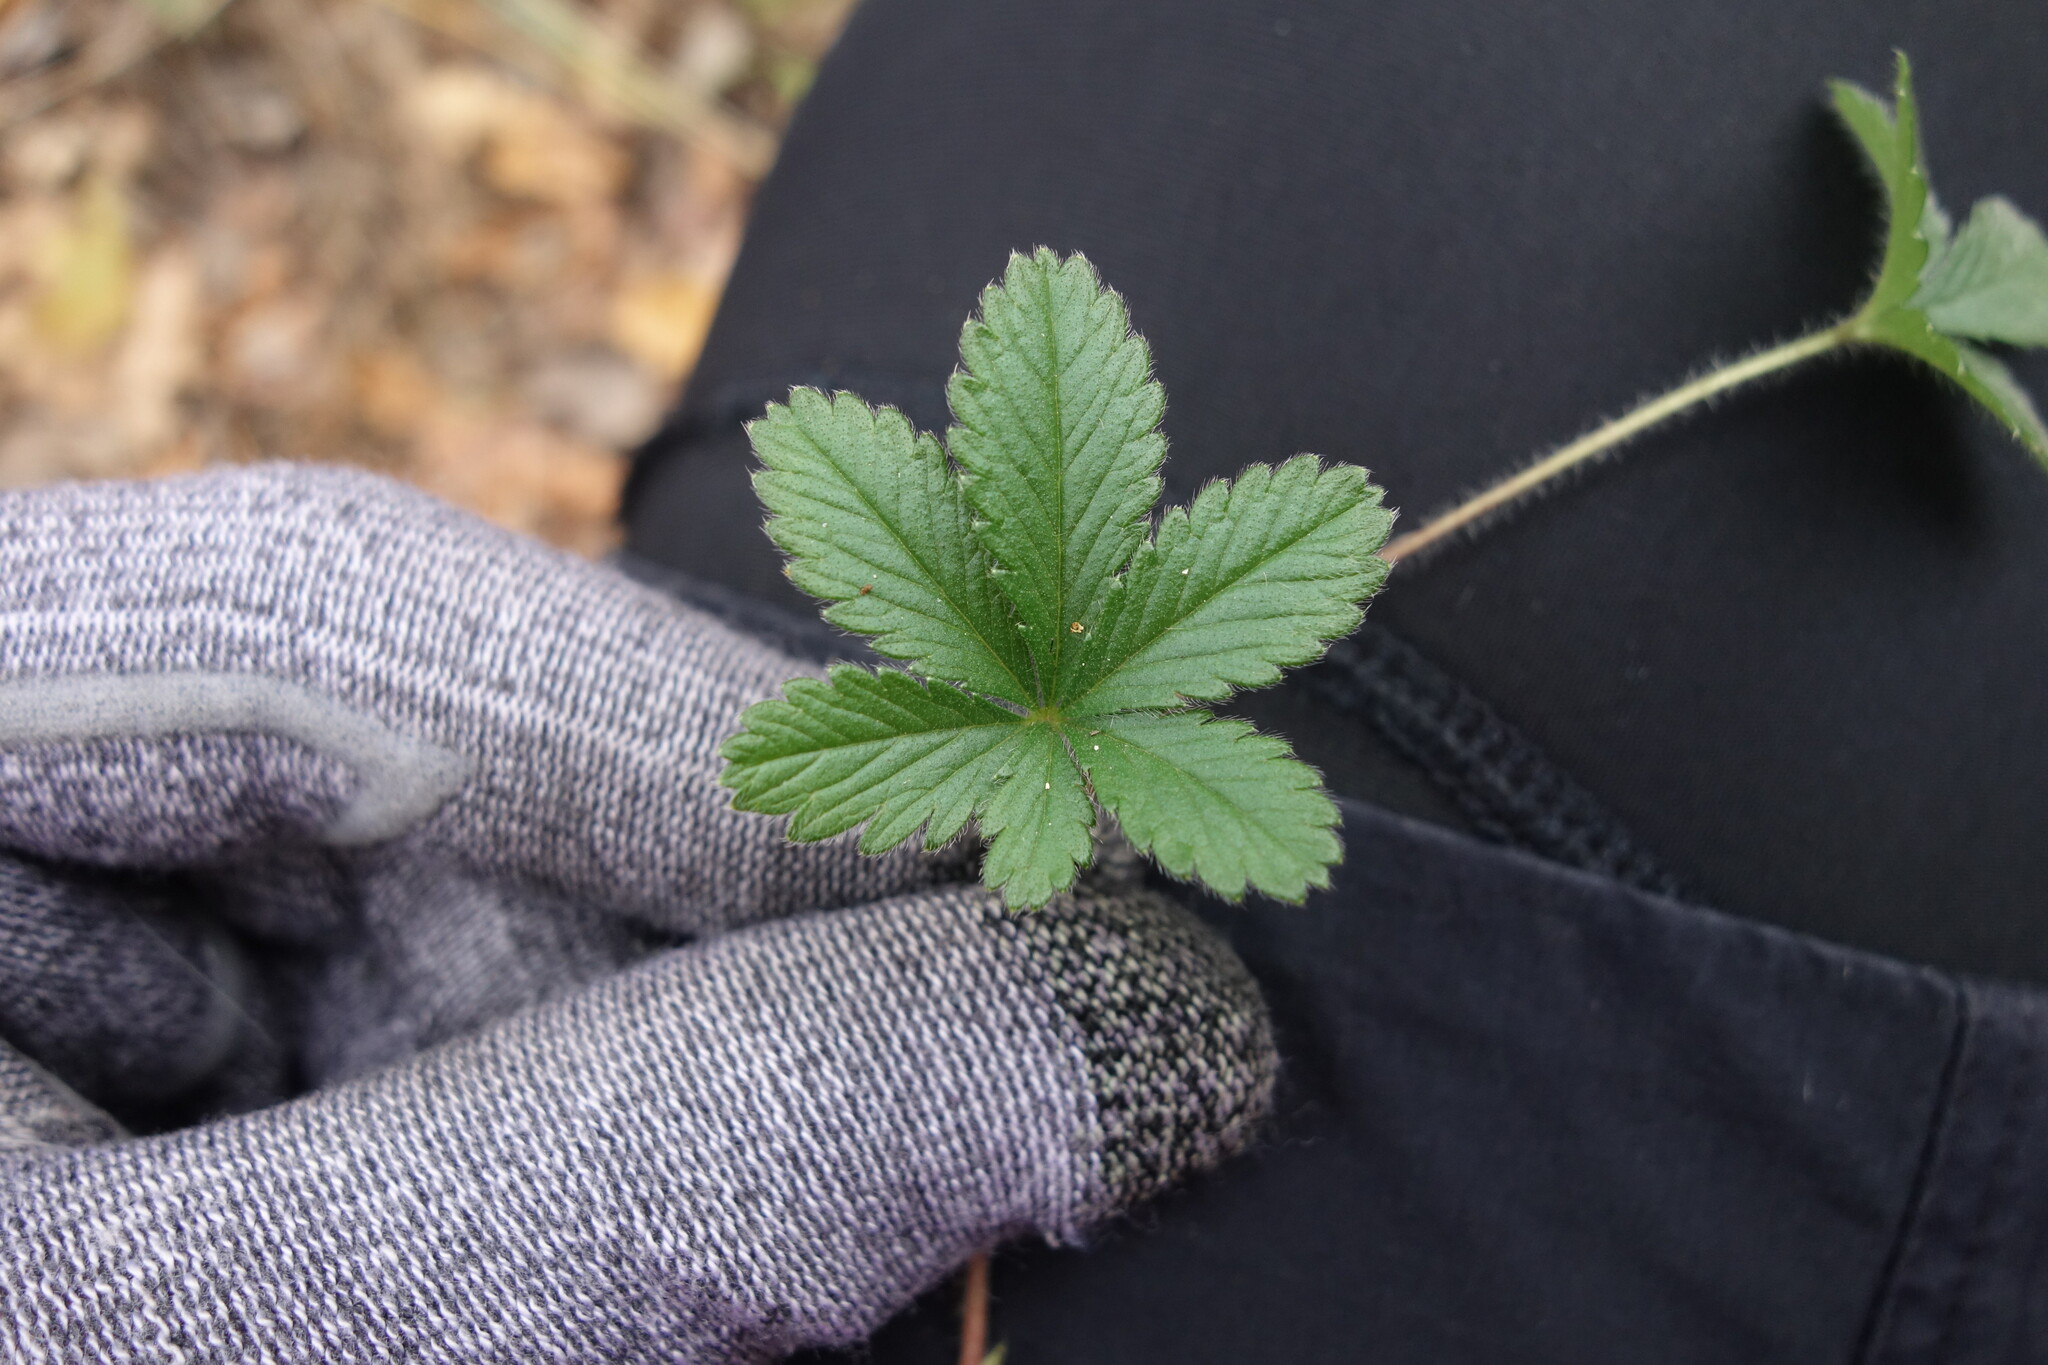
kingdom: Plantae
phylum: Tracheophyta
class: Magnoliopsida
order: Rosales
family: Rosaceae
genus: Potentilla
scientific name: Potentilla thuringiaca
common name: European cinquefoil
